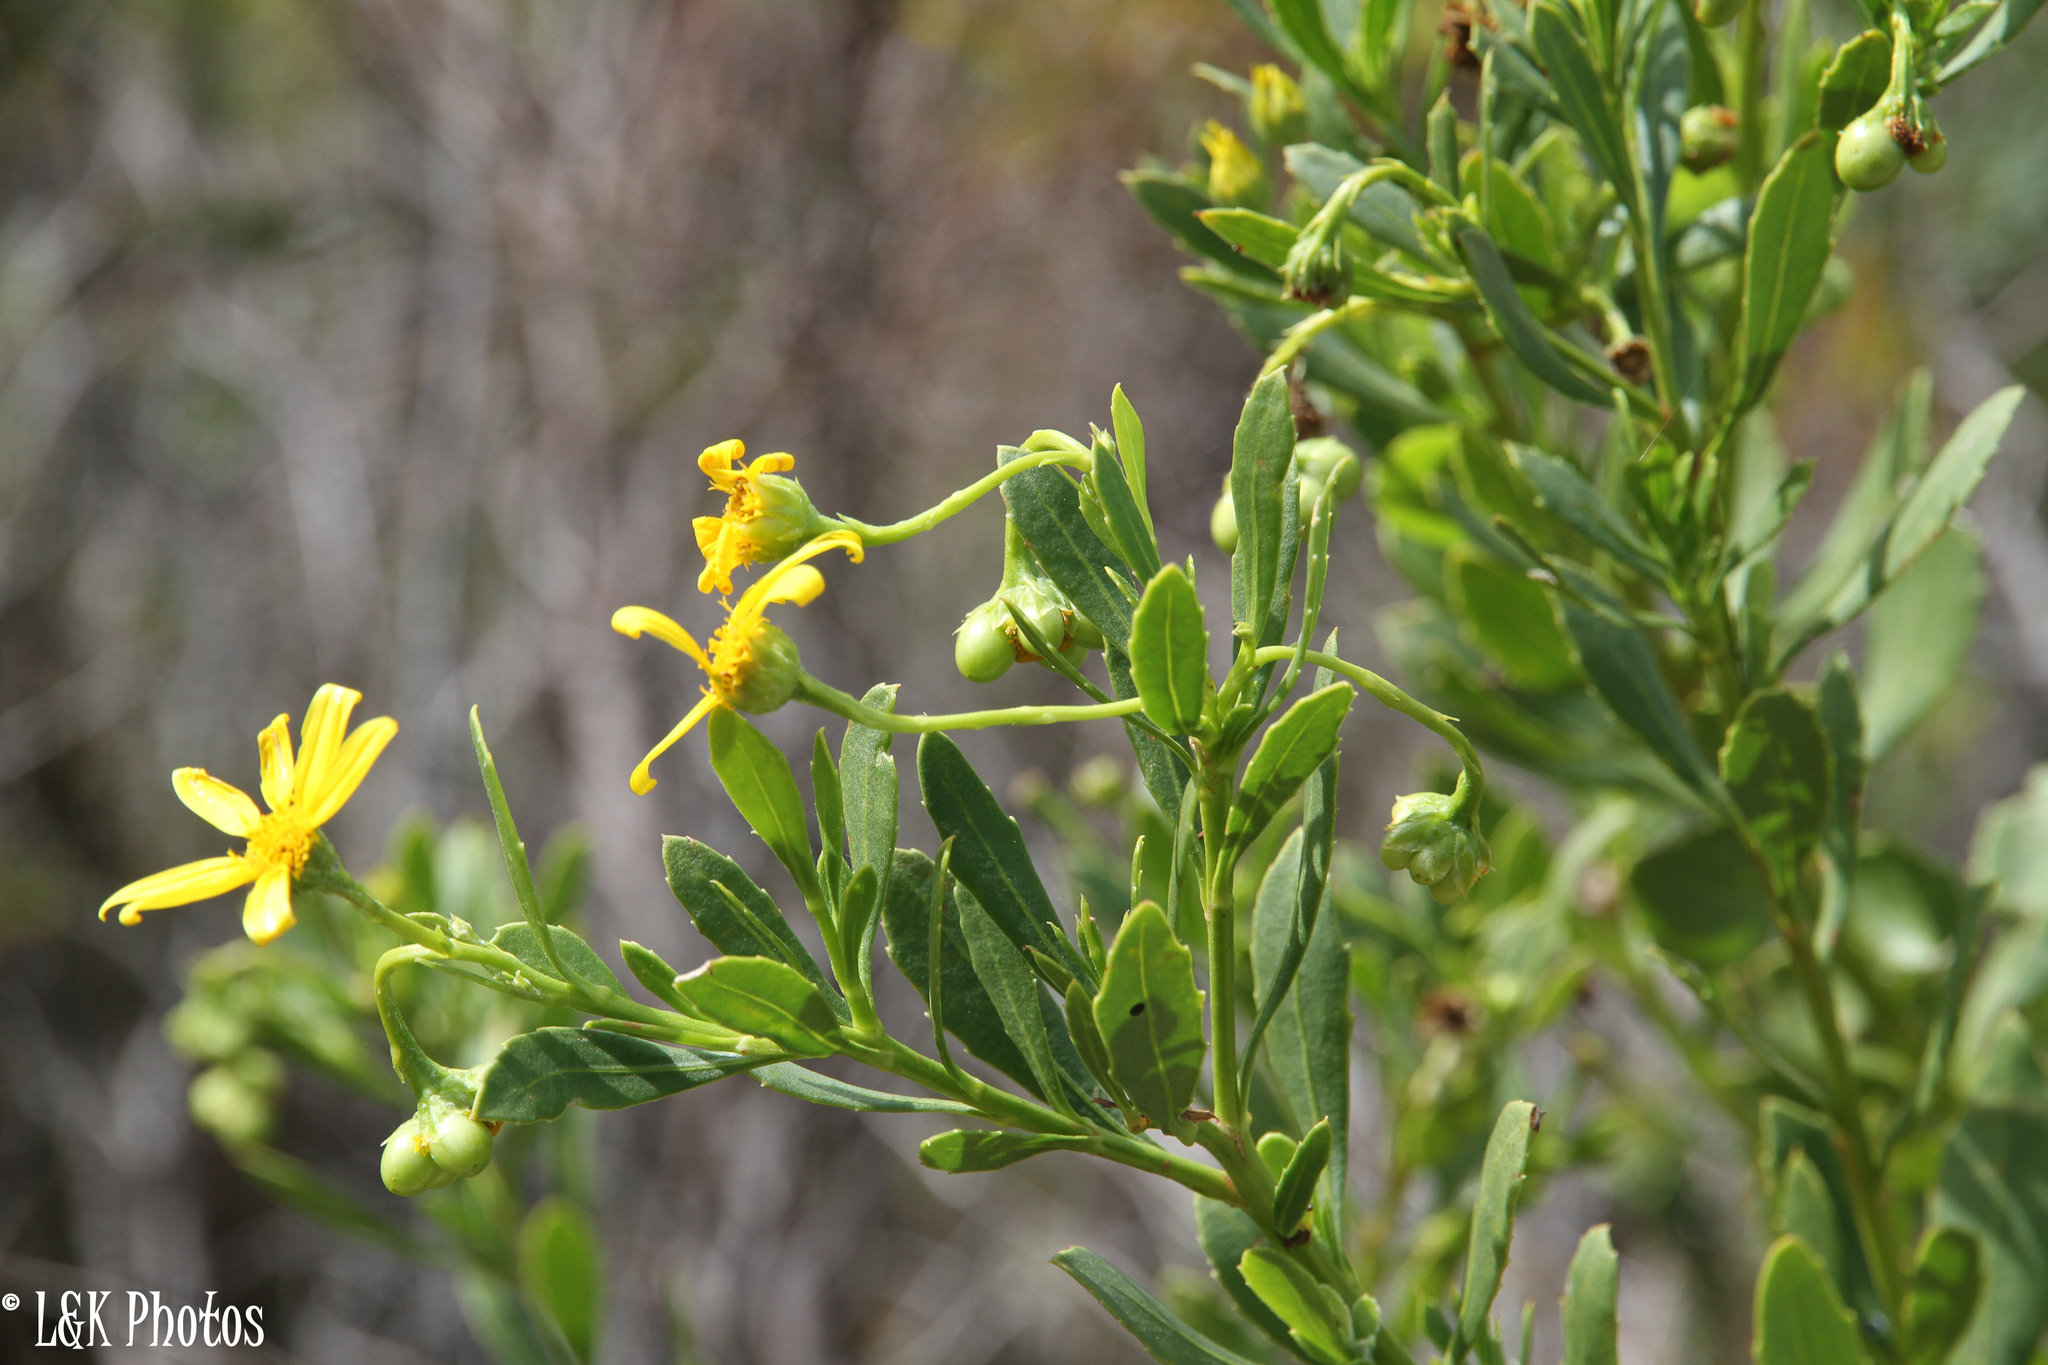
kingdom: Plantae
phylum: Tracheophyta
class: Magnoliopsida
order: Asterales
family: Asteraceae
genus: Osteospermum
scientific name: Osteospermum moniliferum
